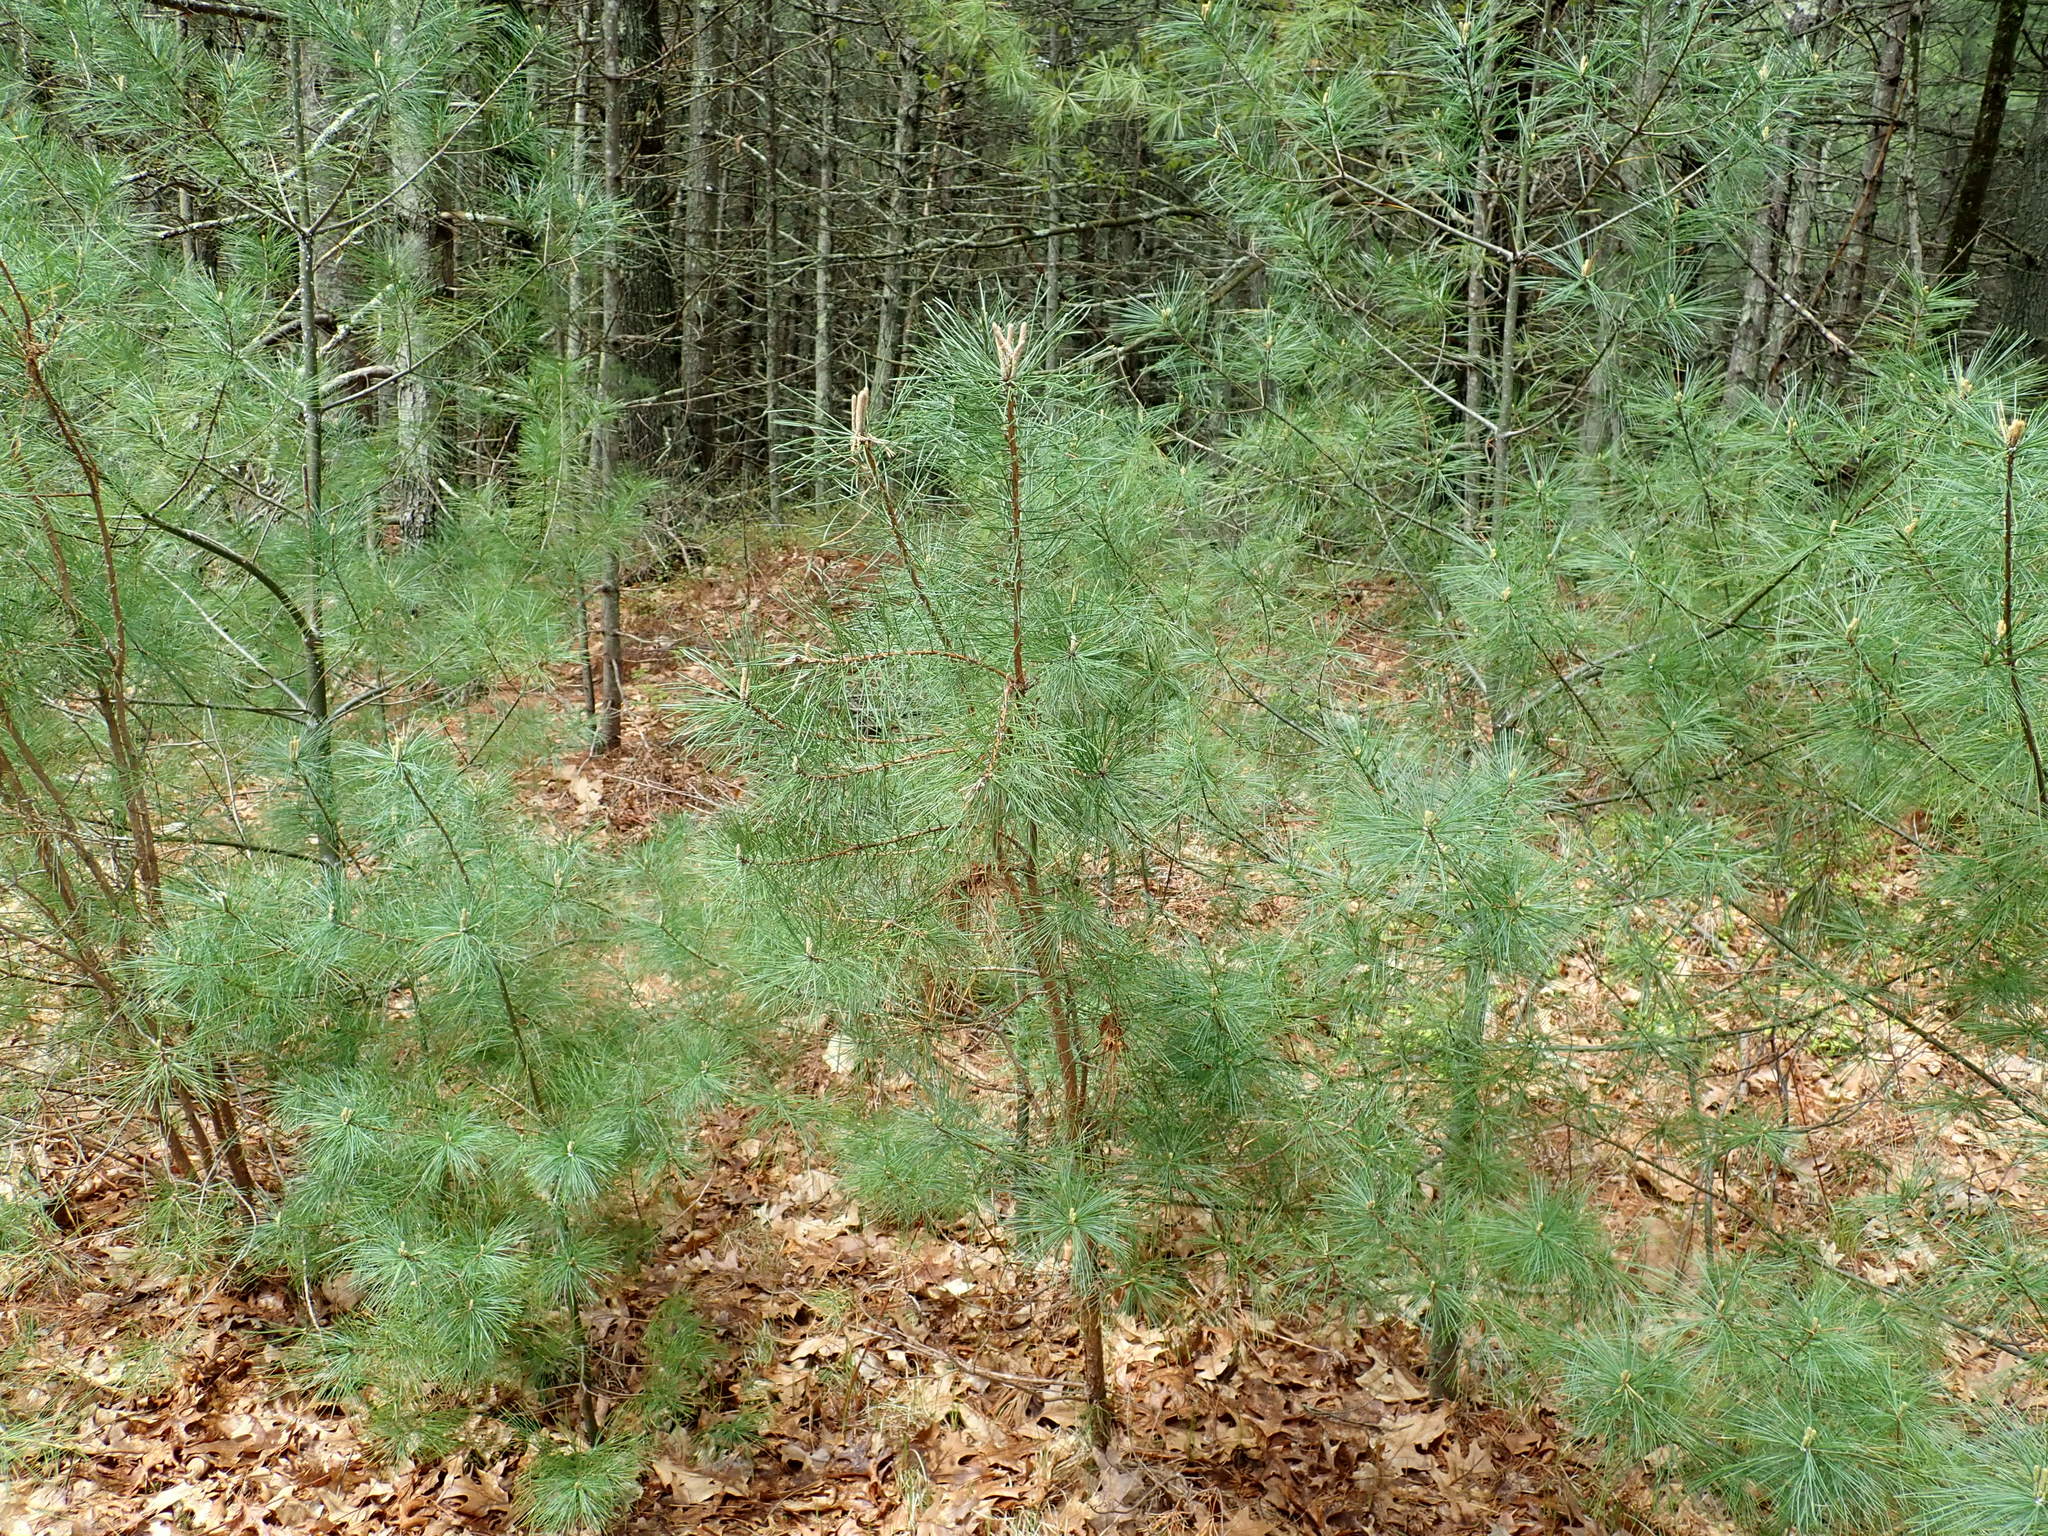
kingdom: Plantae
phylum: Tracheophyta
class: Pinopsida
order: Pinales
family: Pinaceae
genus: Pinus
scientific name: Pinus rigida
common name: Pitch pine
